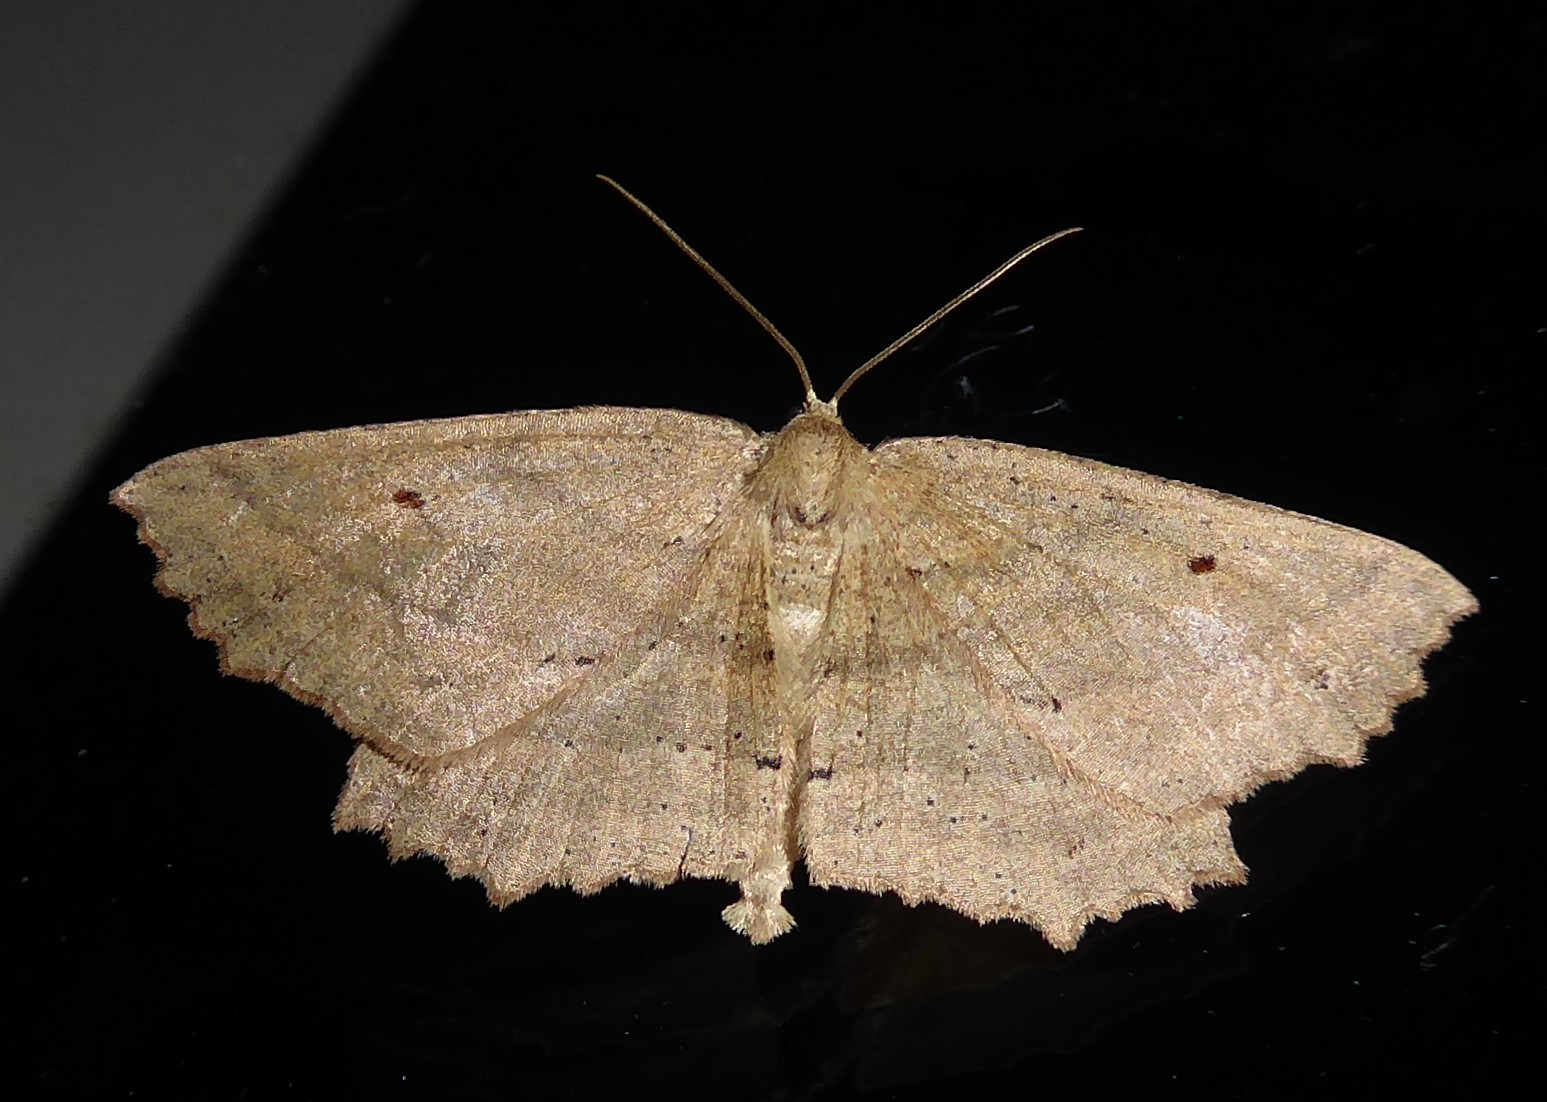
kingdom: Animalia
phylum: Arthropoda
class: Insecta
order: Lepidoptera
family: Geometridae
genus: Xyridacma
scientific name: Xyridacma veronicae
